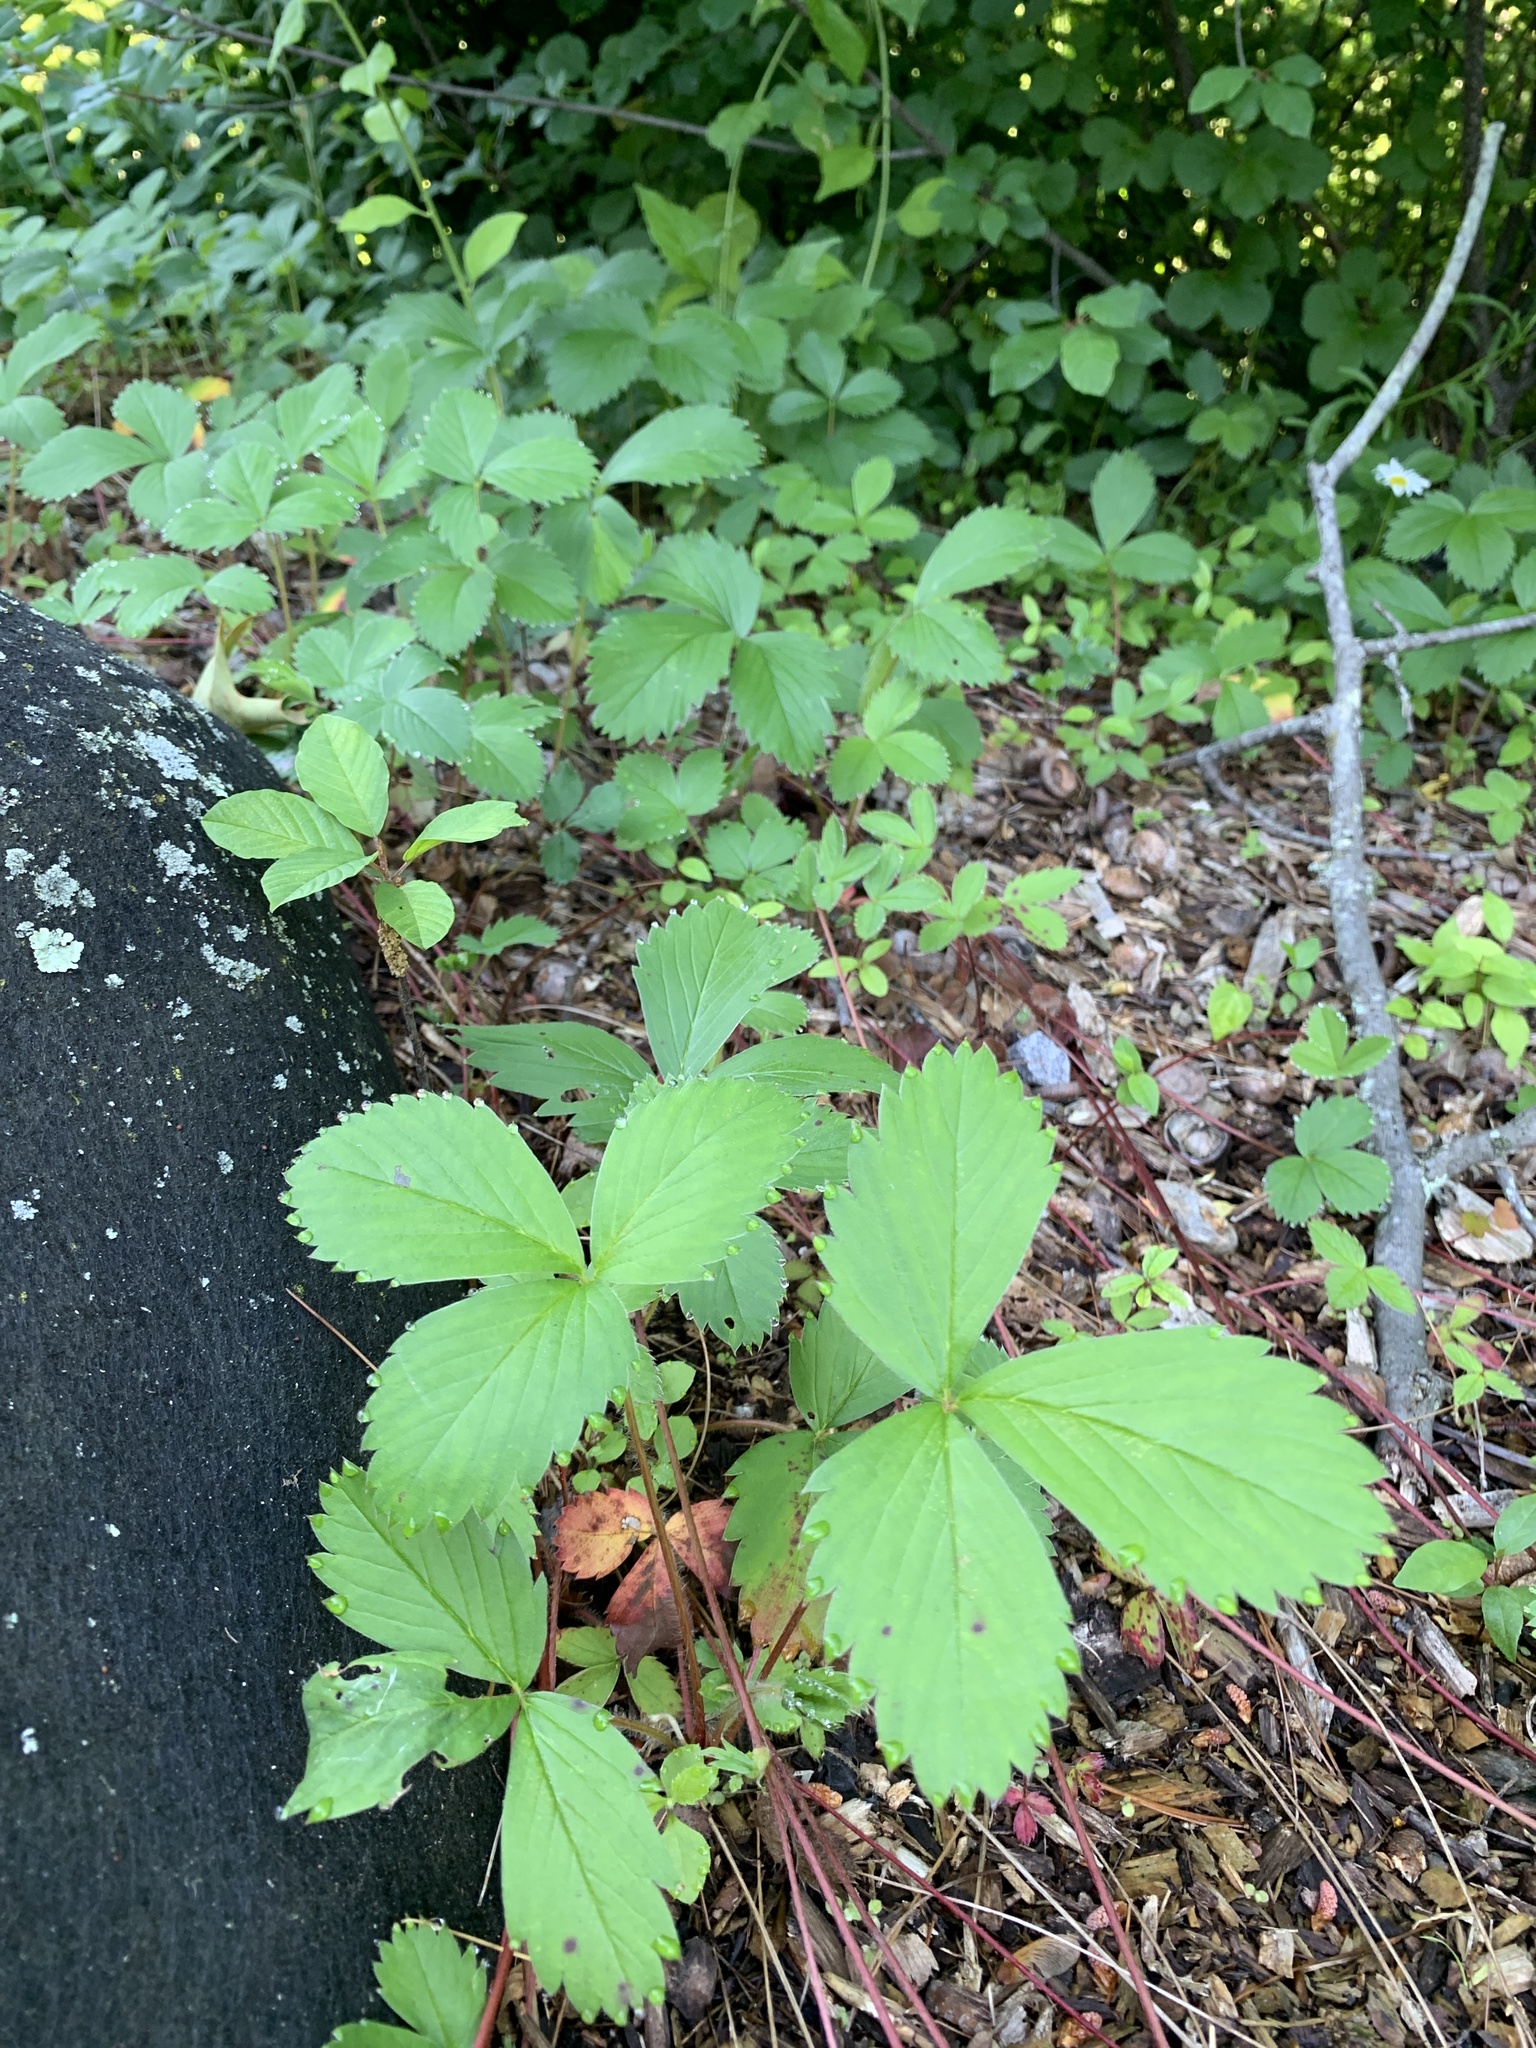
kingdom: Plantae
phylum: Tracheophyta
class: Magnoliopsida
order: Rosales
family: Rosaceae
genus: Fragaria
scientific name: Fragaria virginiana
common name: Thickleaved wild strawberry
